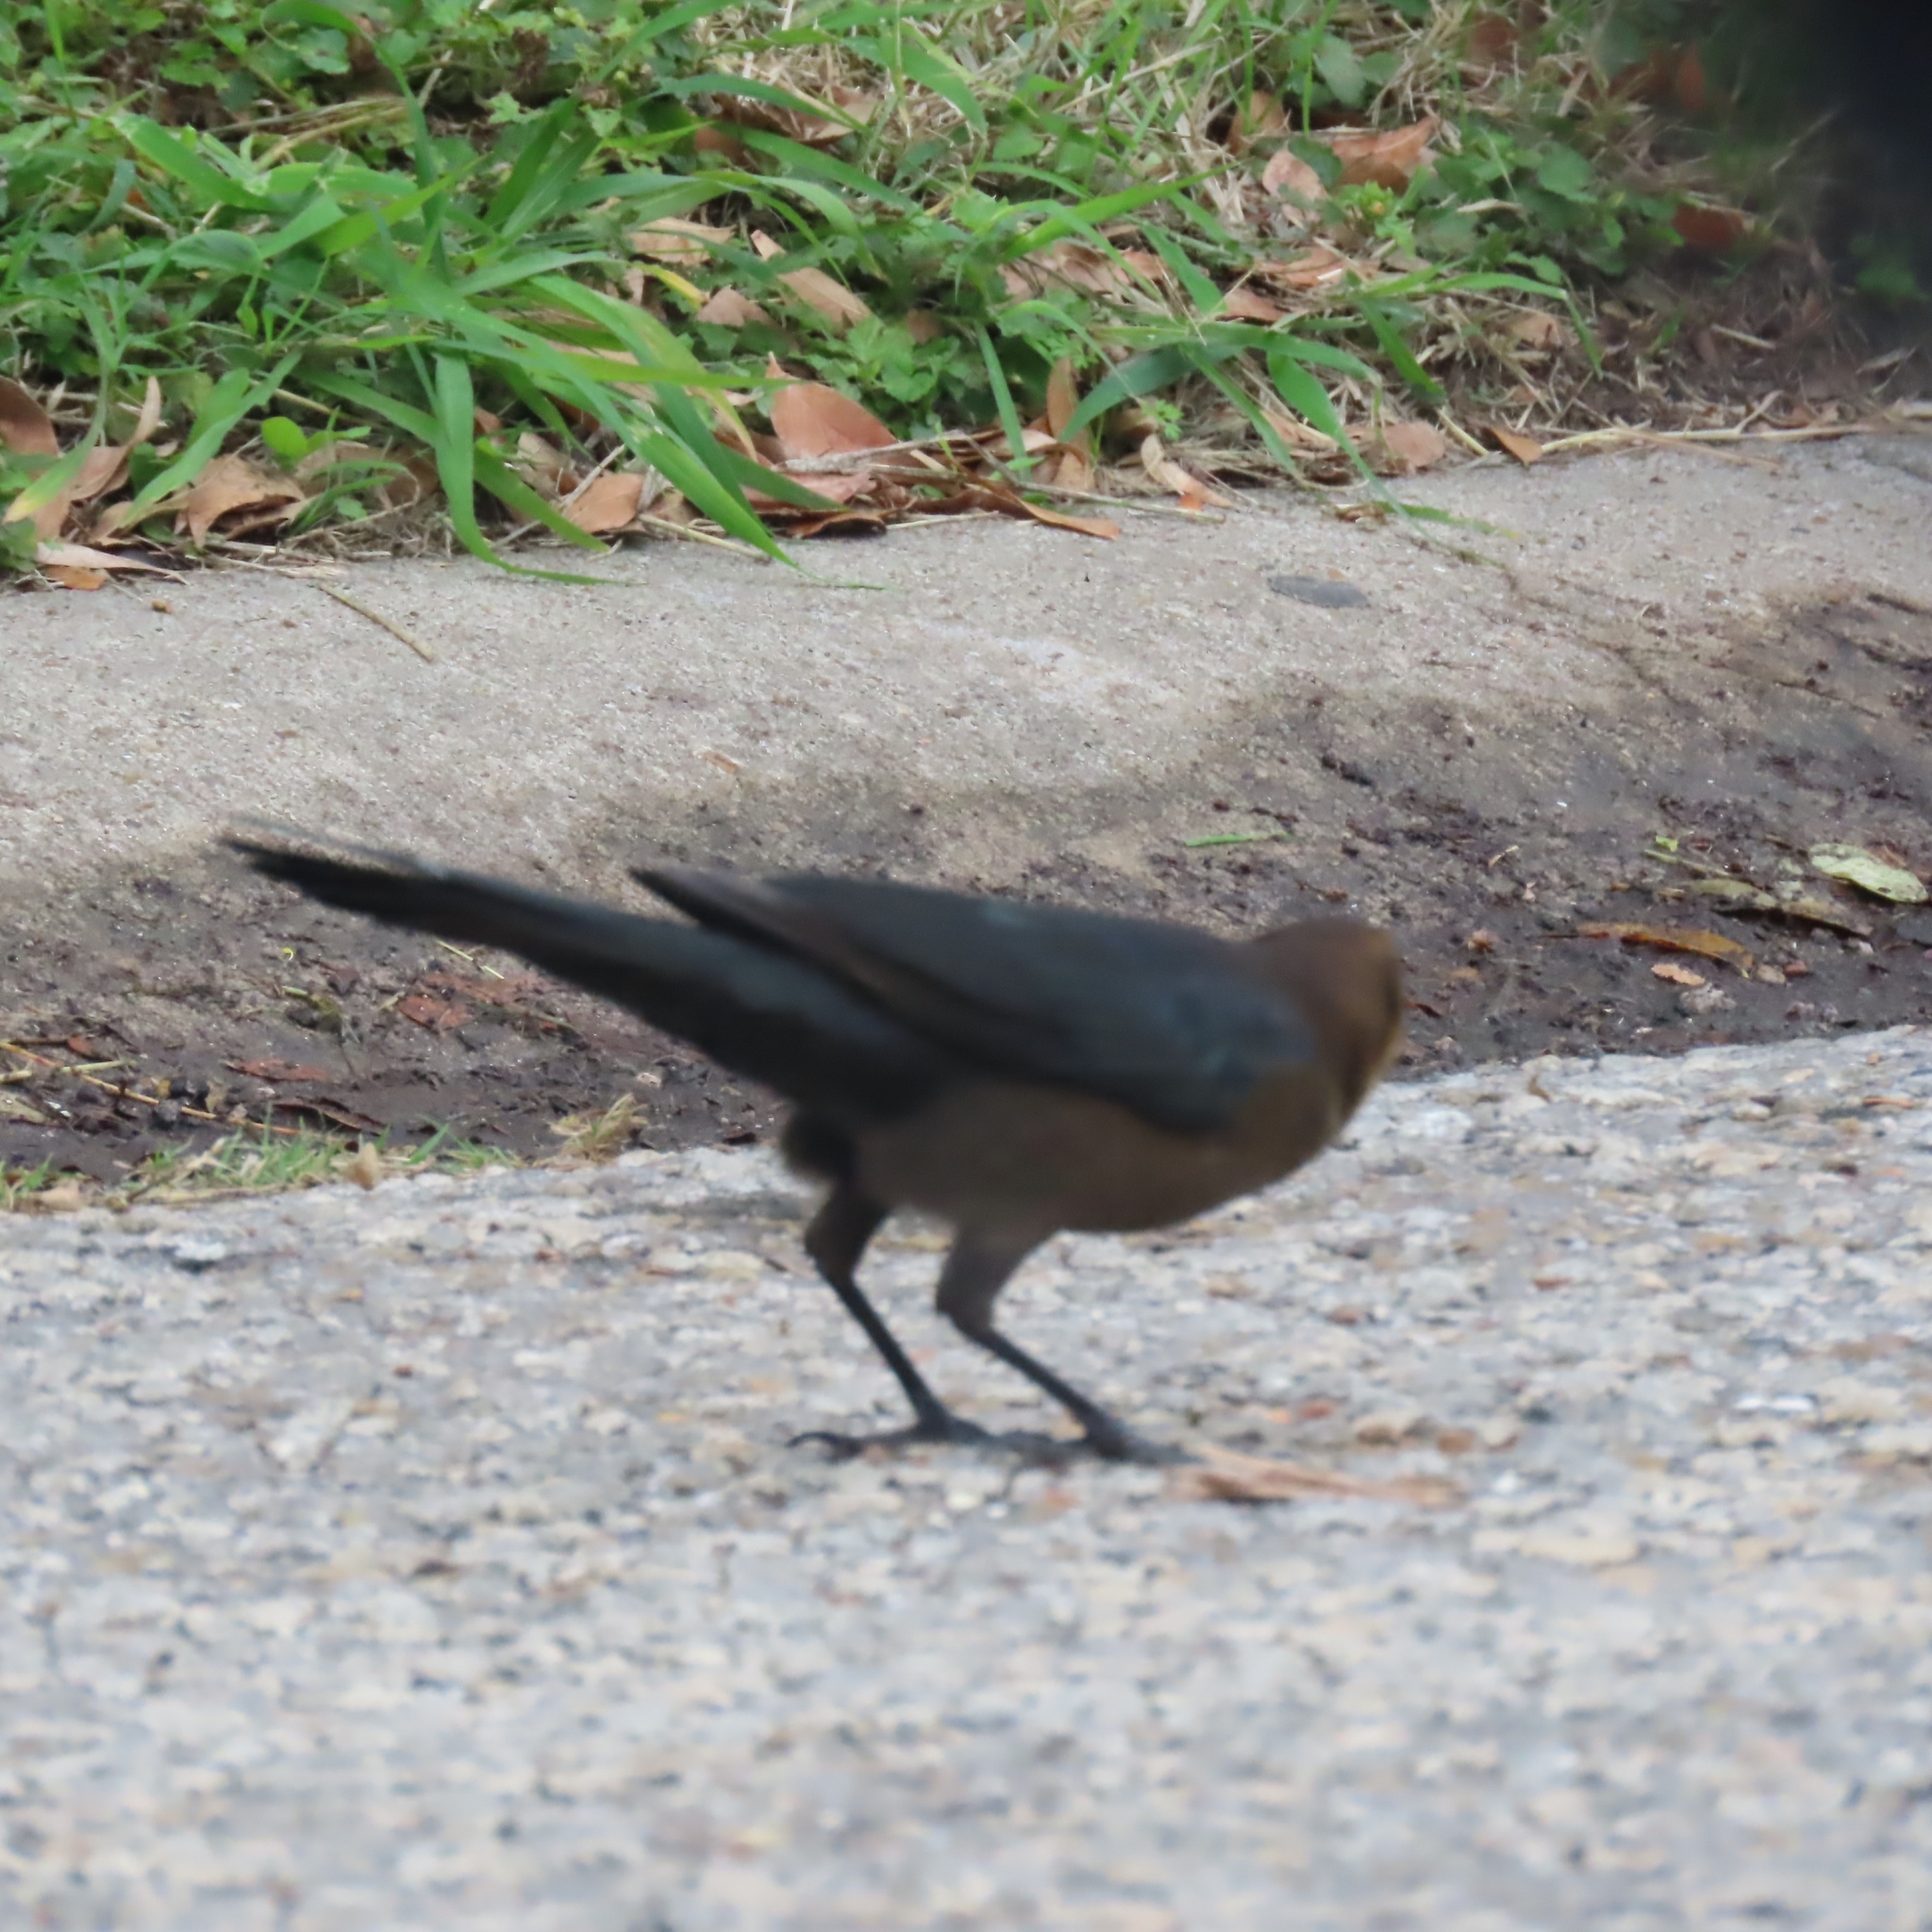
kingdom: Animalia
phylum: Chordata
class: Aves
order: Passeriformes
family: Icteridae
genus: Quiscalus
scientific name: Quiscalus mexicanus
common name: Great-tailed grackle
